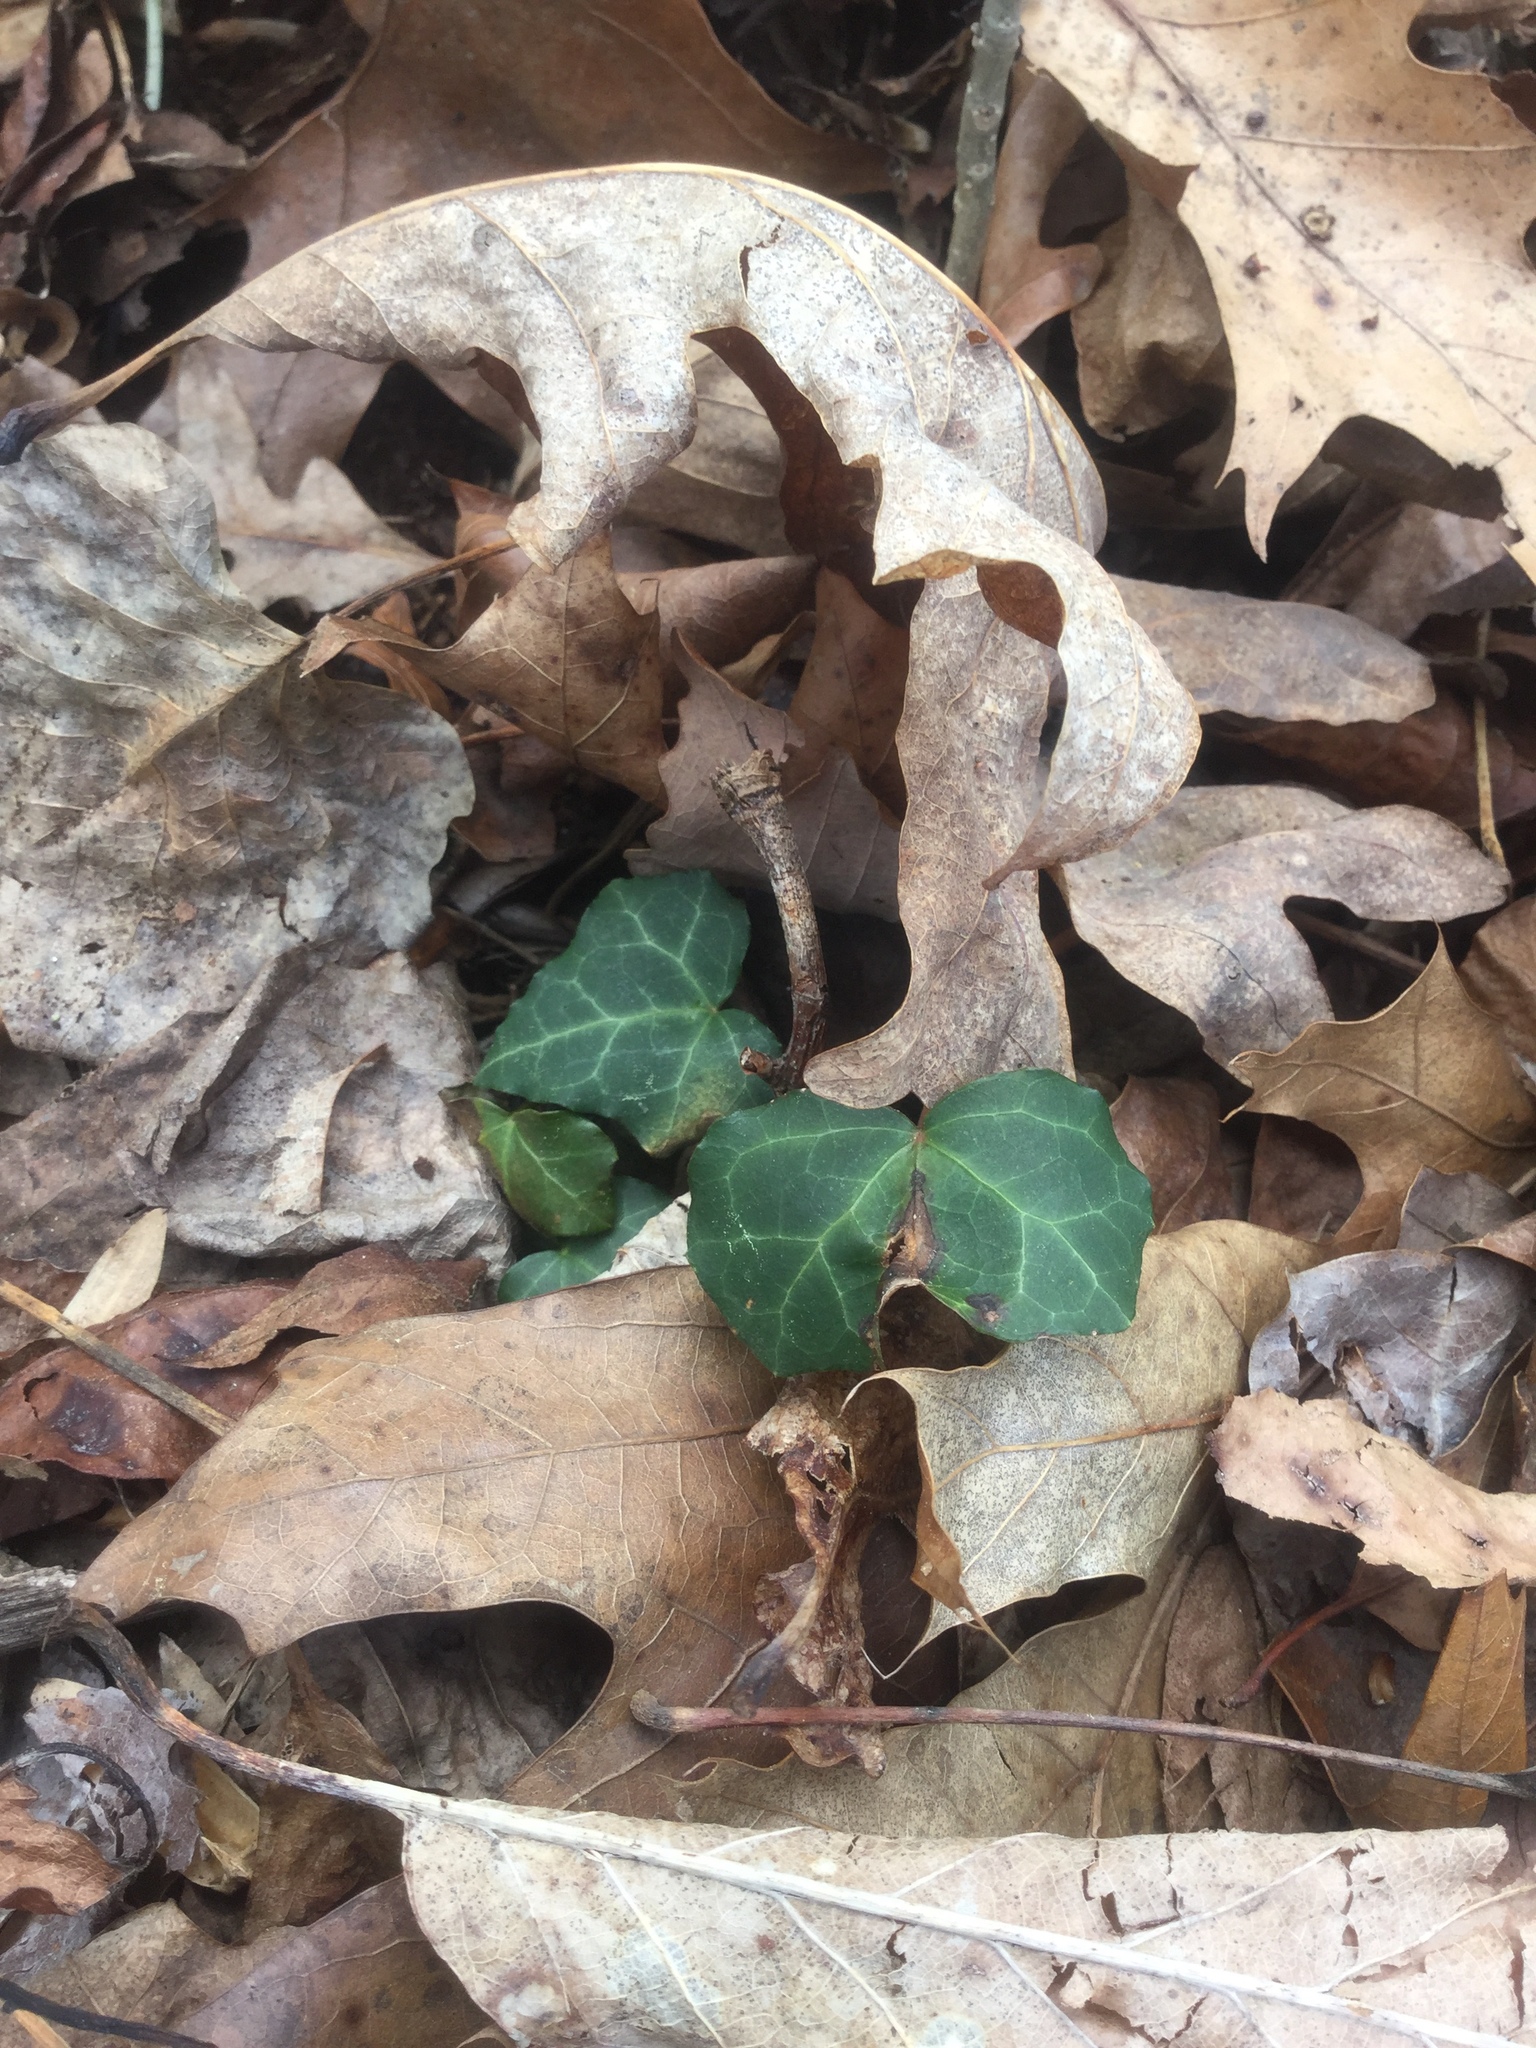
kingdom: Plantae
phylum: Tracheophyta
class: Magnoliopsida
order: Apiales
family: Araliaceae
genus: Hedera
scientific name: Hedera helix
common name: Ivy
